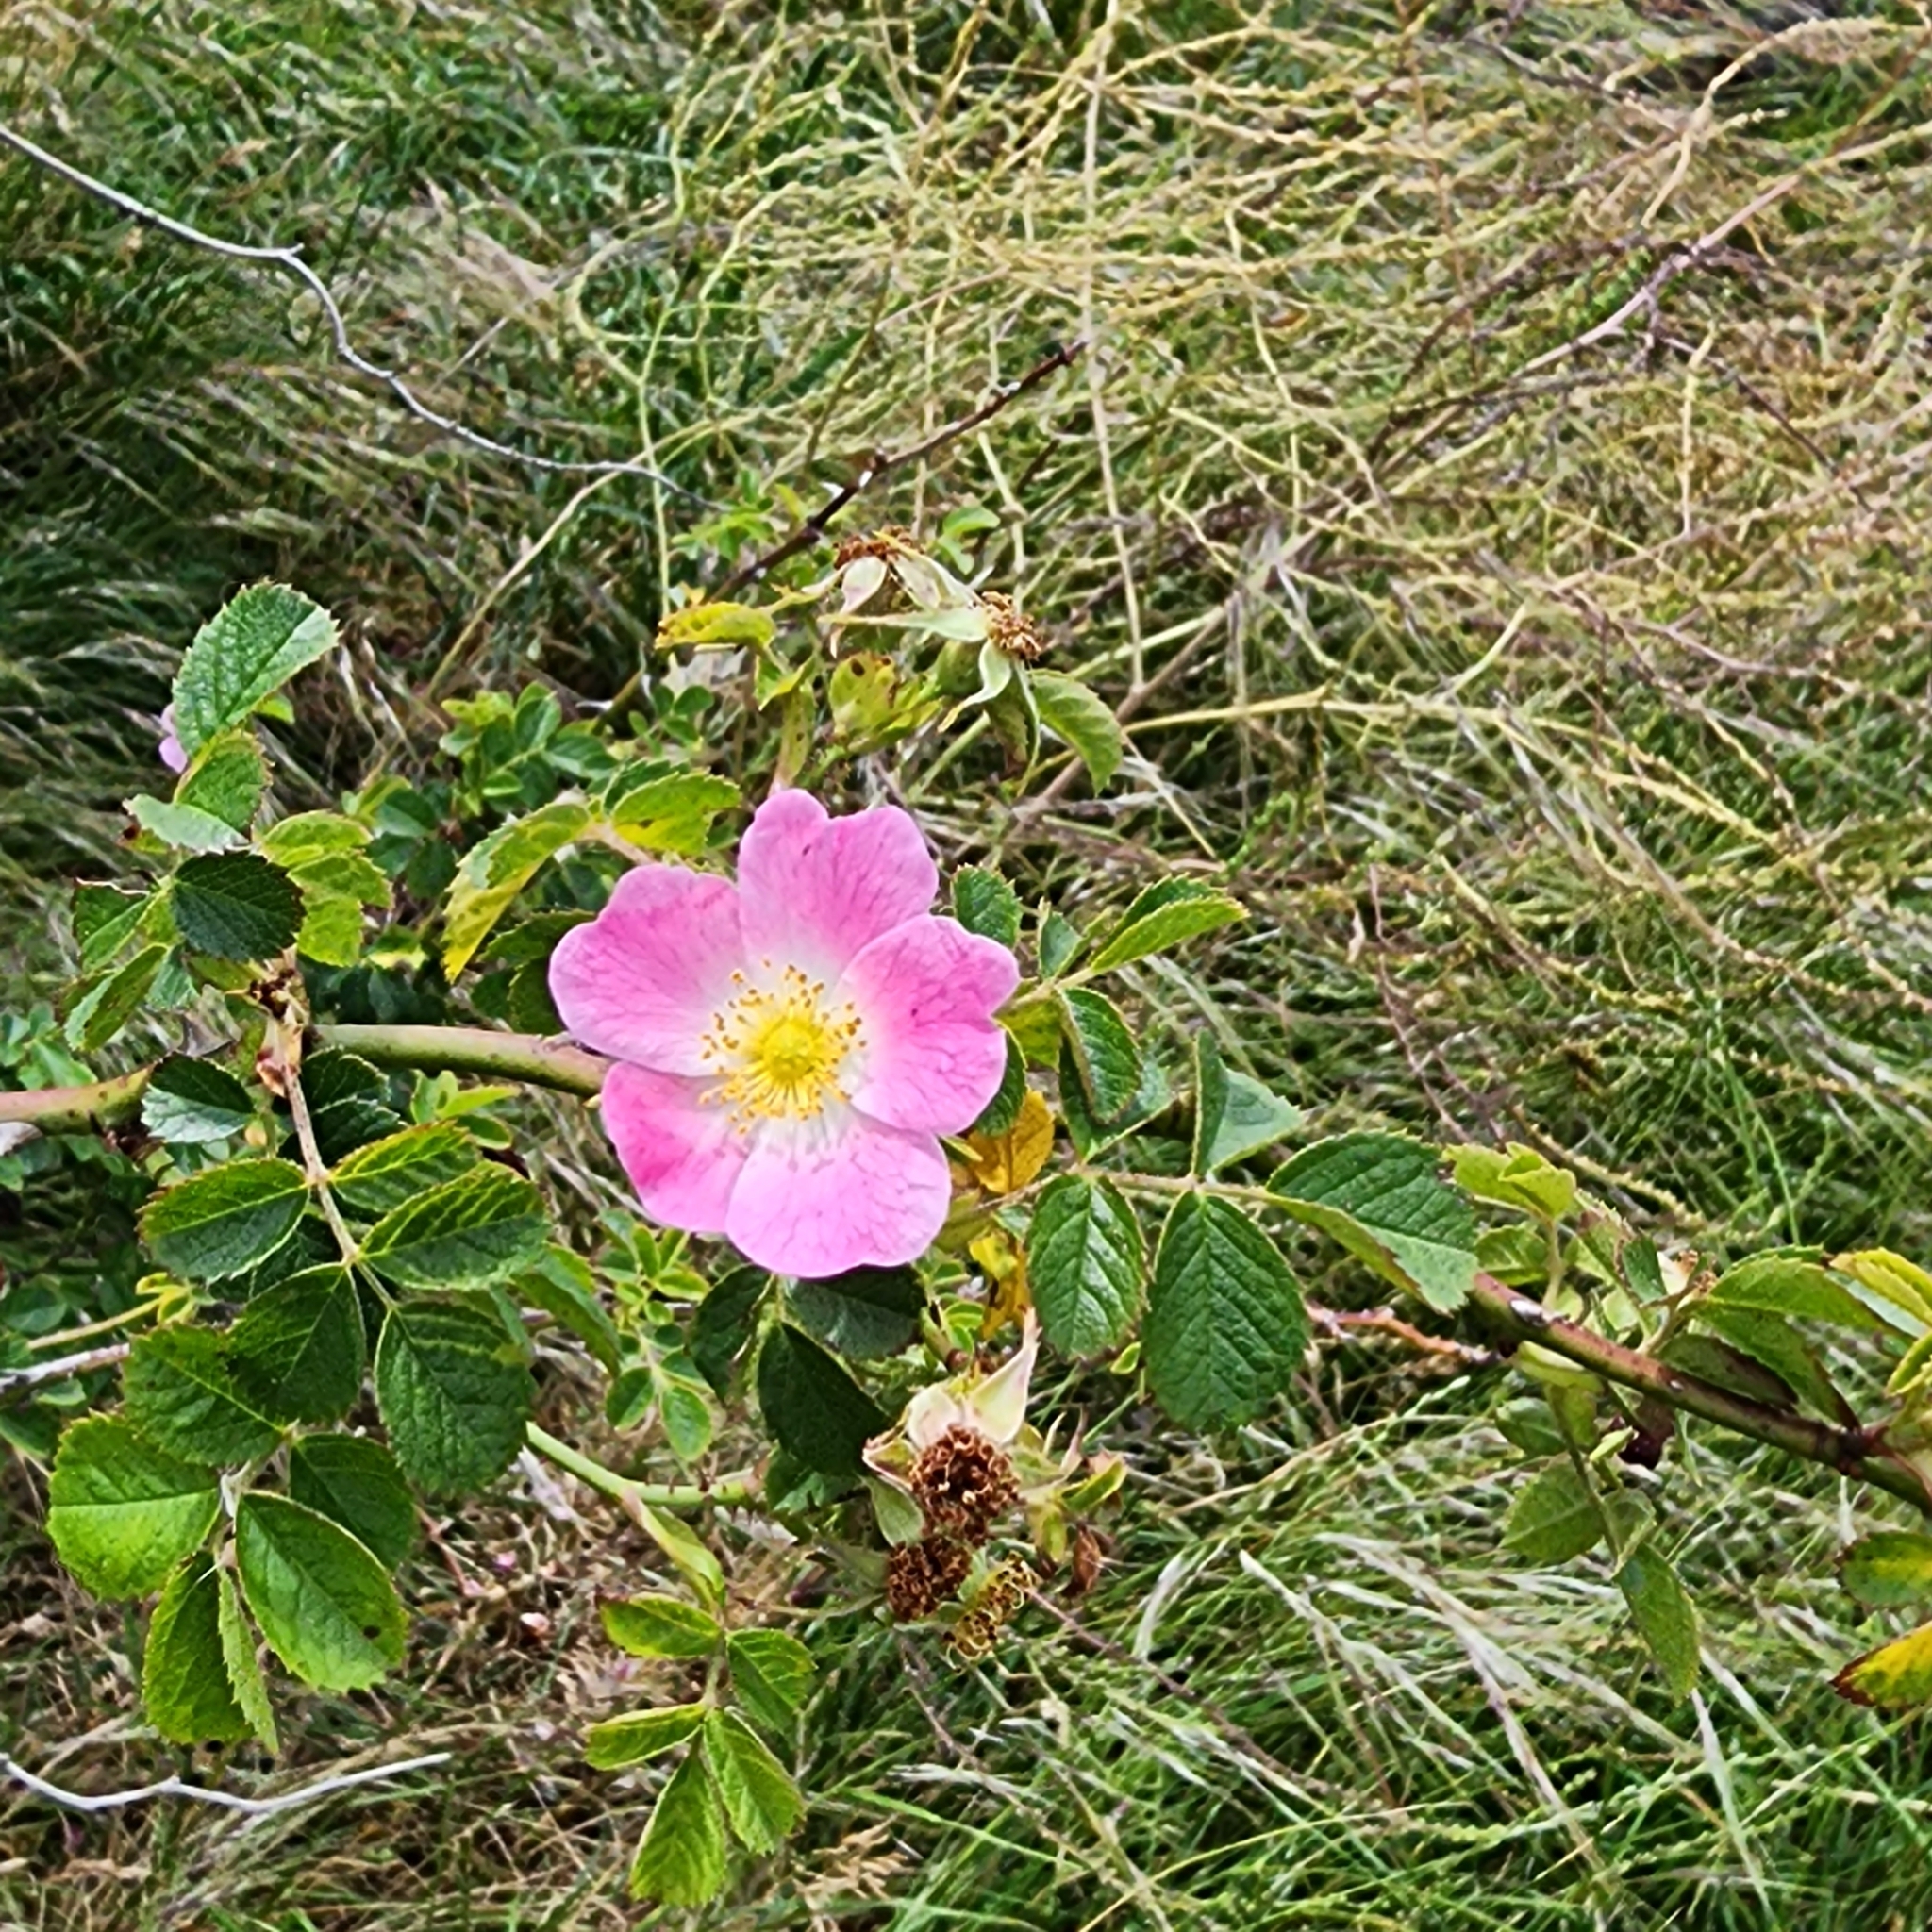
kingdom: Plantae
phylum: Tracheophyta
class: Magnoliopsida
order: Rosales
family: Rosaceae
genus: Rosa
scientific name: Rosa rubiginosa
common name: Sweet-briar
